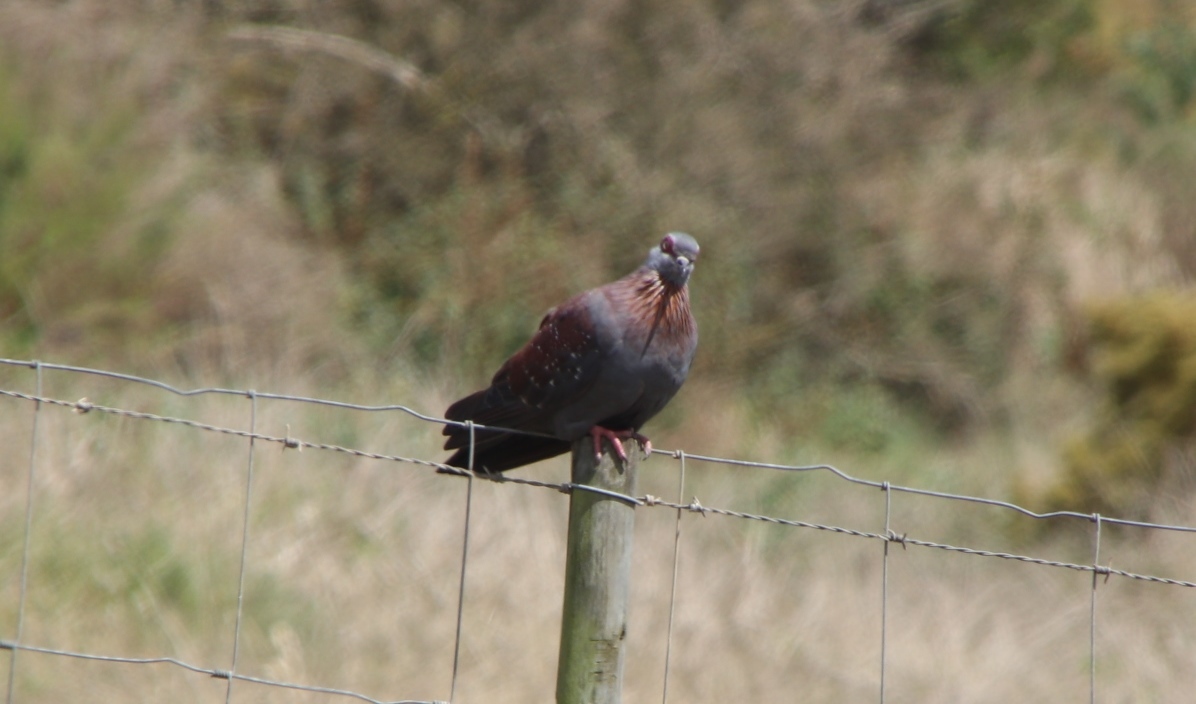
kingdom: Animalia
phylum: Chordata
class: Aves
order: Columbiformes
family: Columbidae
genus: Columba
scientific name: Columba guinea
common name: Speckled pigeon
